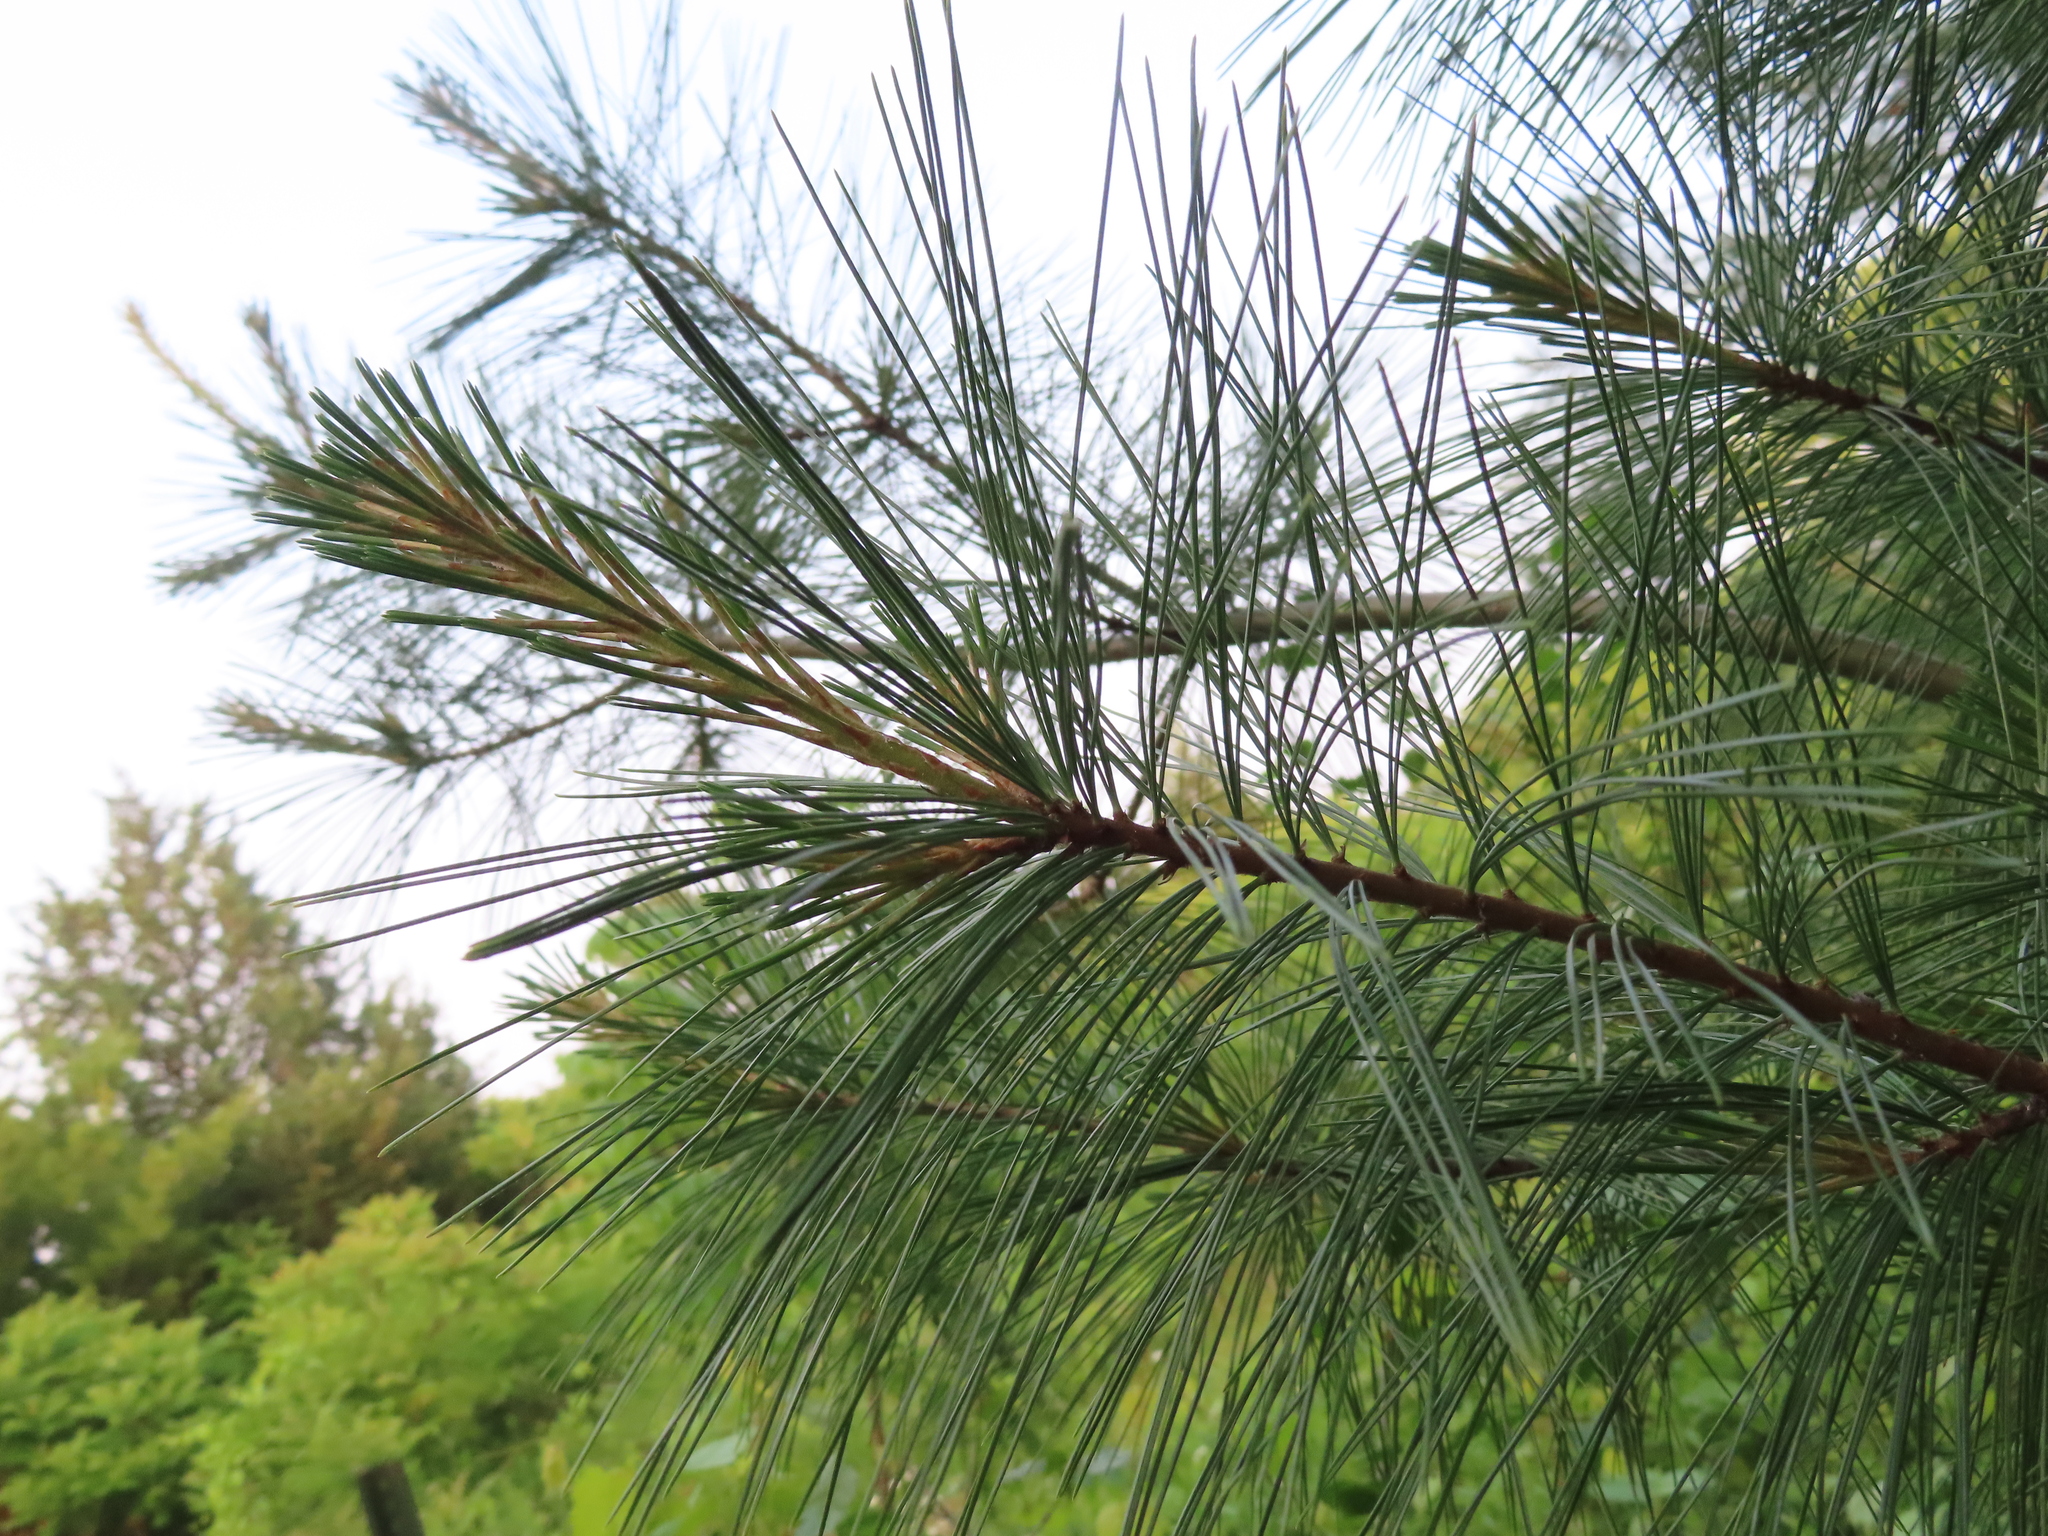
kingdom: Plantae
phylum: Tracheophyta
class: Pinopsida
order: Pinales
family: Pinaceae
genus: Pinus
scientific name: Pinus strobus
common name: Weymouth pine
